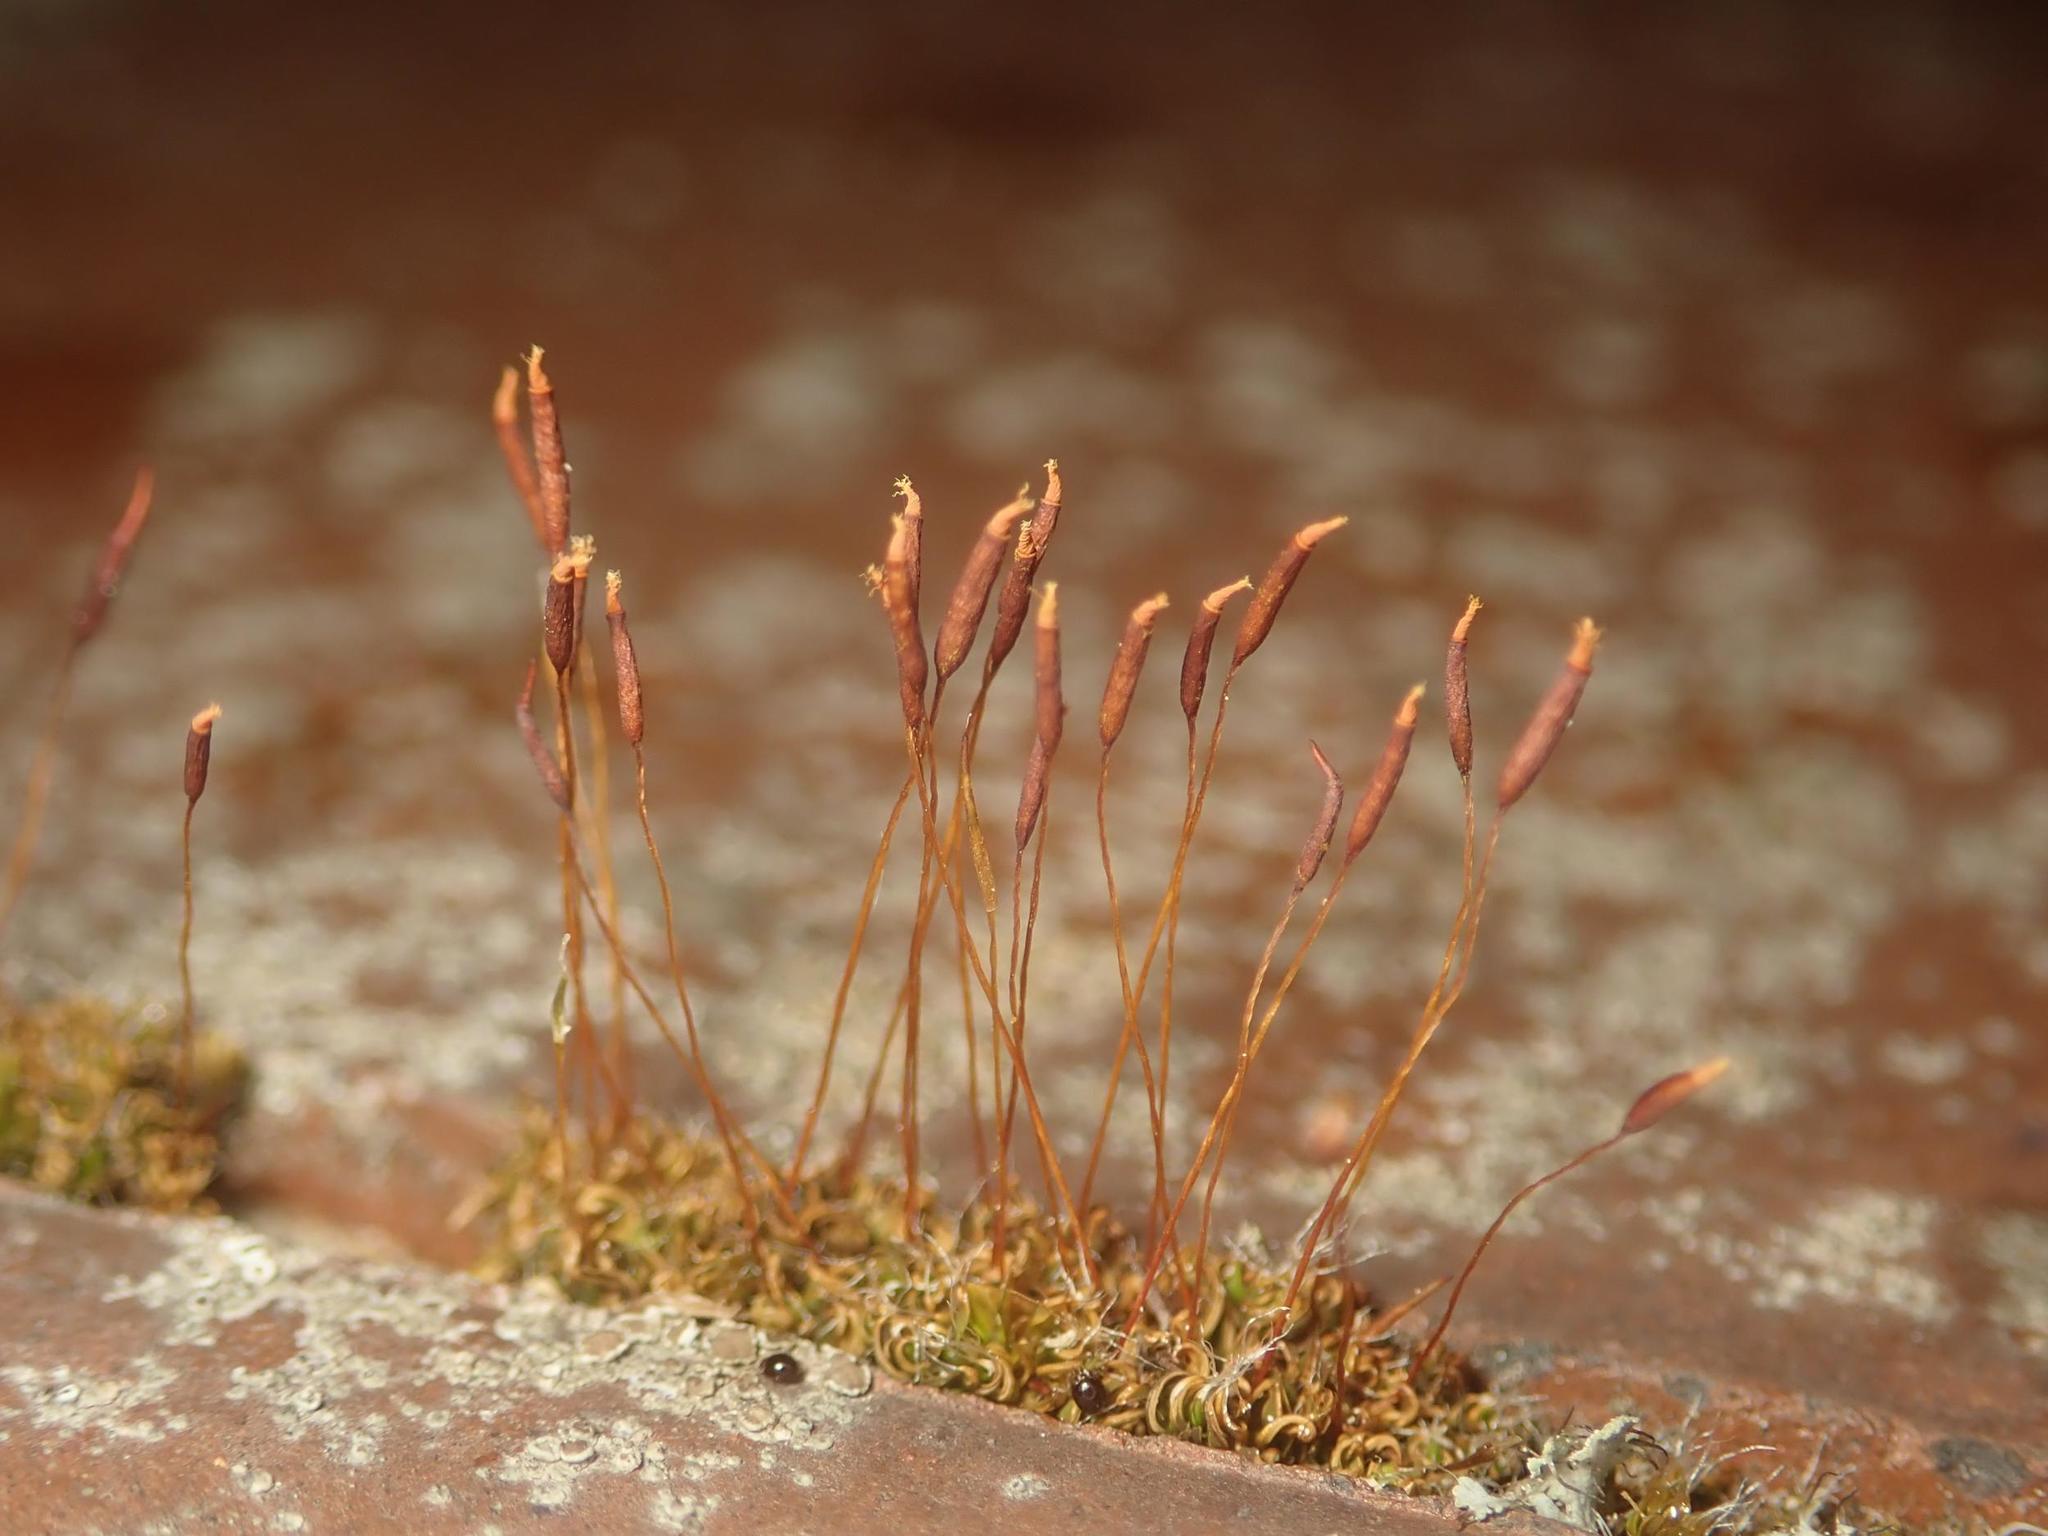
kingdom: Plantae
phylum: Bryophyta
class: Bryopsida
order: Pottiales
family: Pottiaceae
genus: Tortula
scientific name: Tortula muralis
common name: Wall screw-moss
